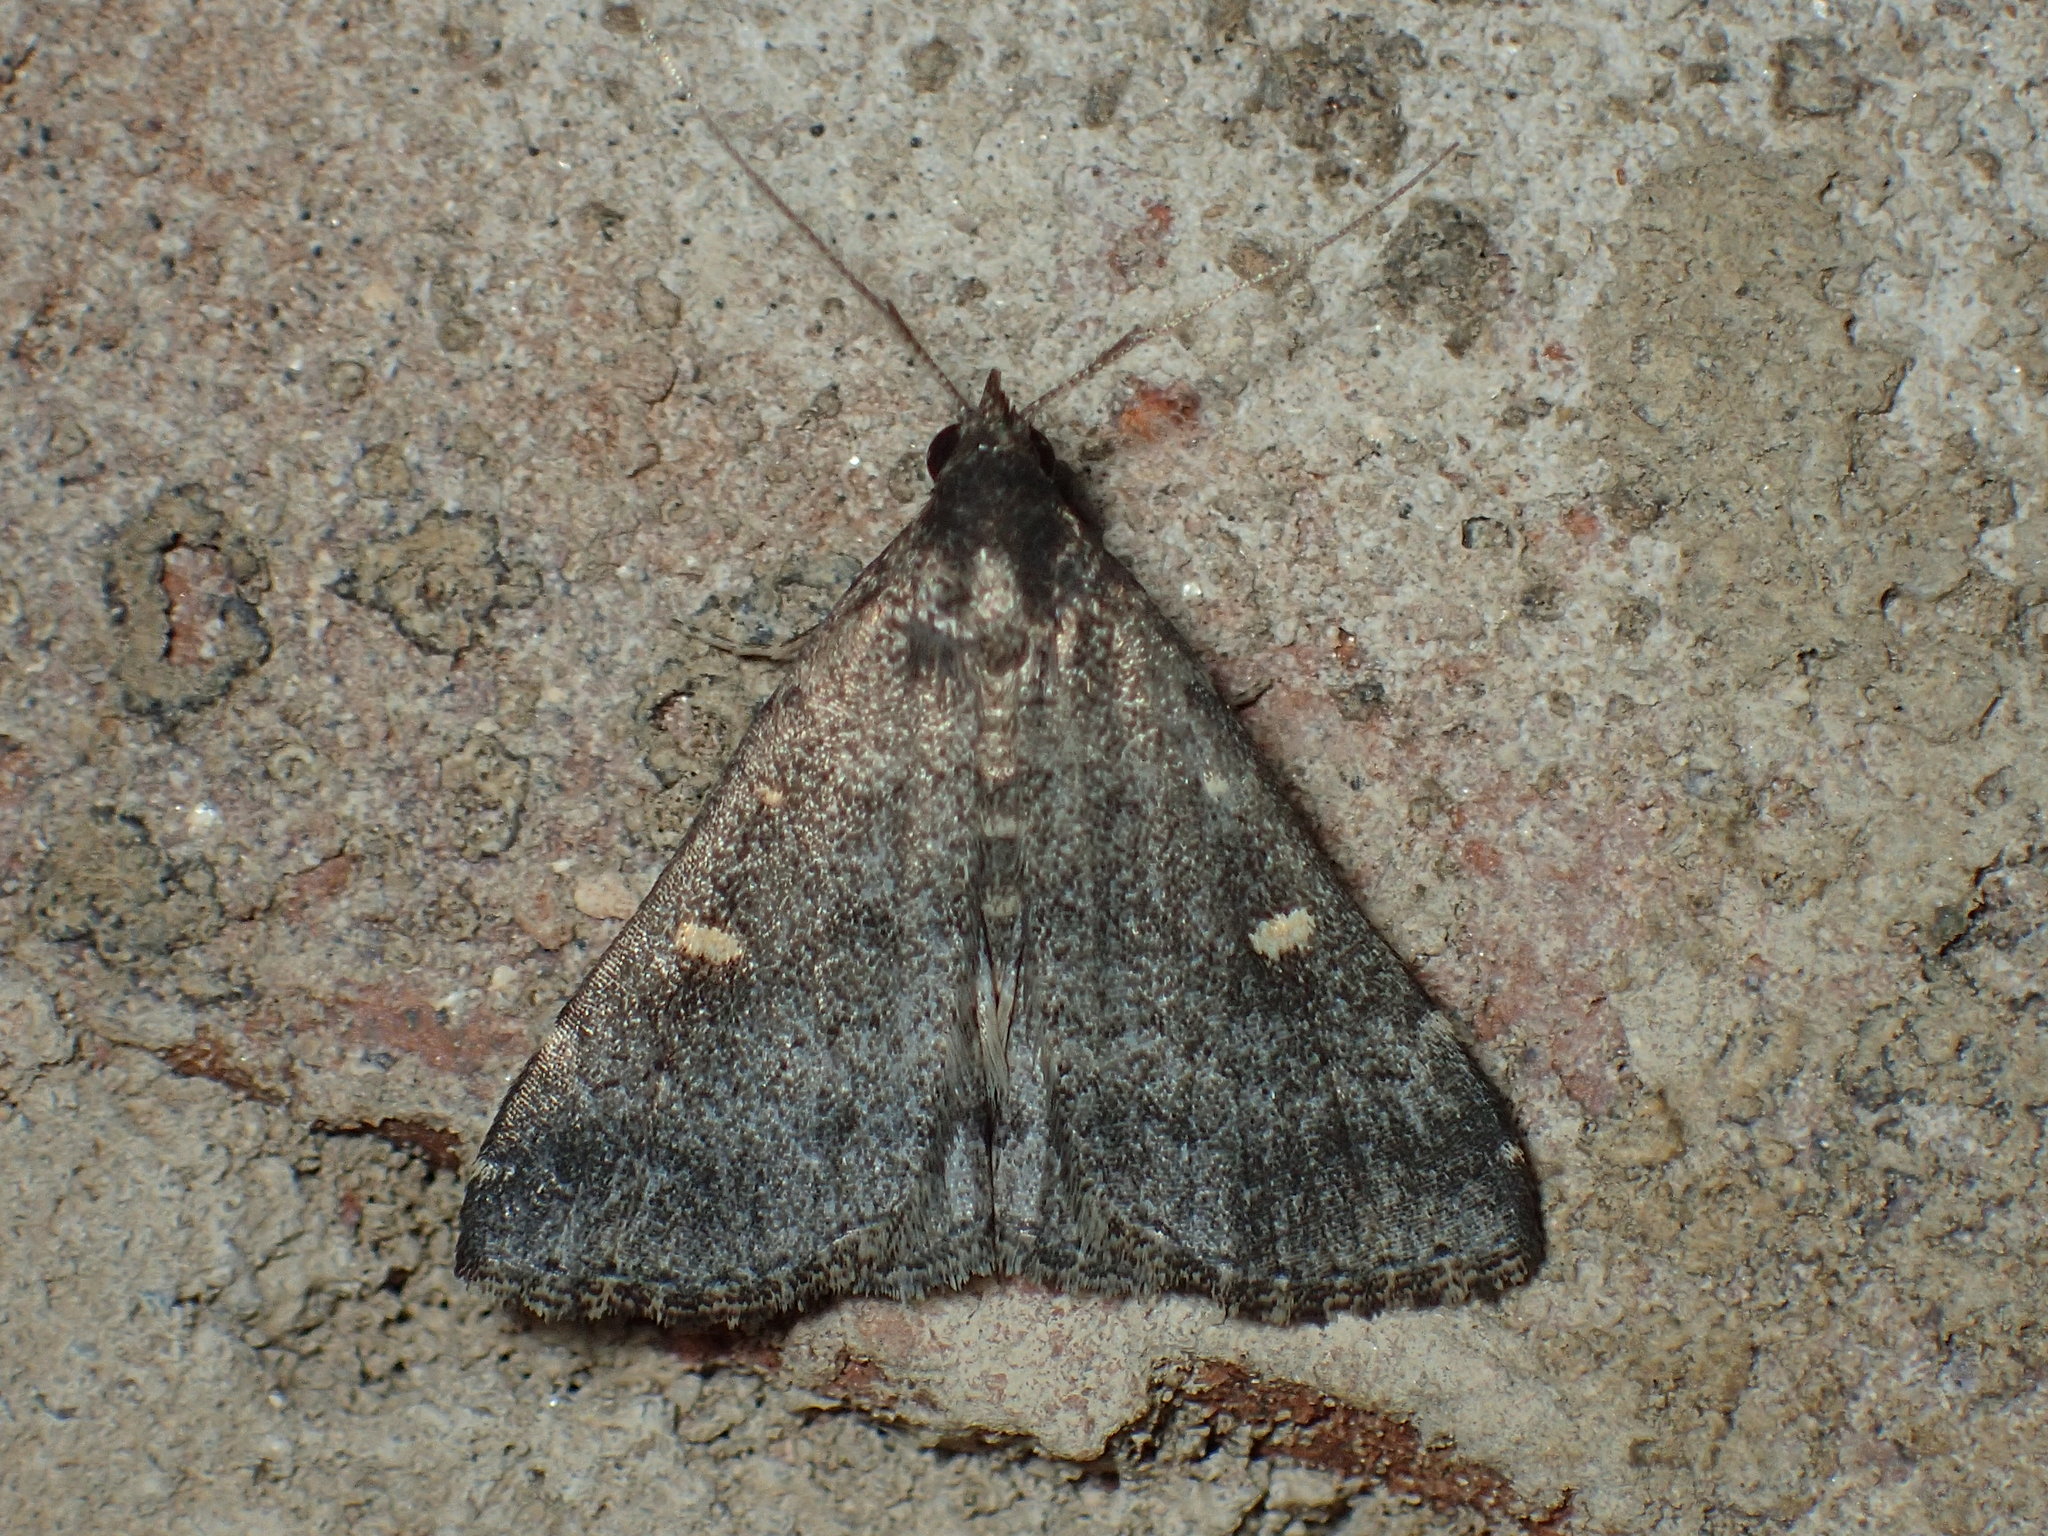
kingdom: Animalia
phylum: Arthropoda
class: Insecta
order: Lepidoptera
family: Erebidae
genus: Tetanolita
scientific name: Tetanolita mynesalis
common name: Smoky tetanolita moth
